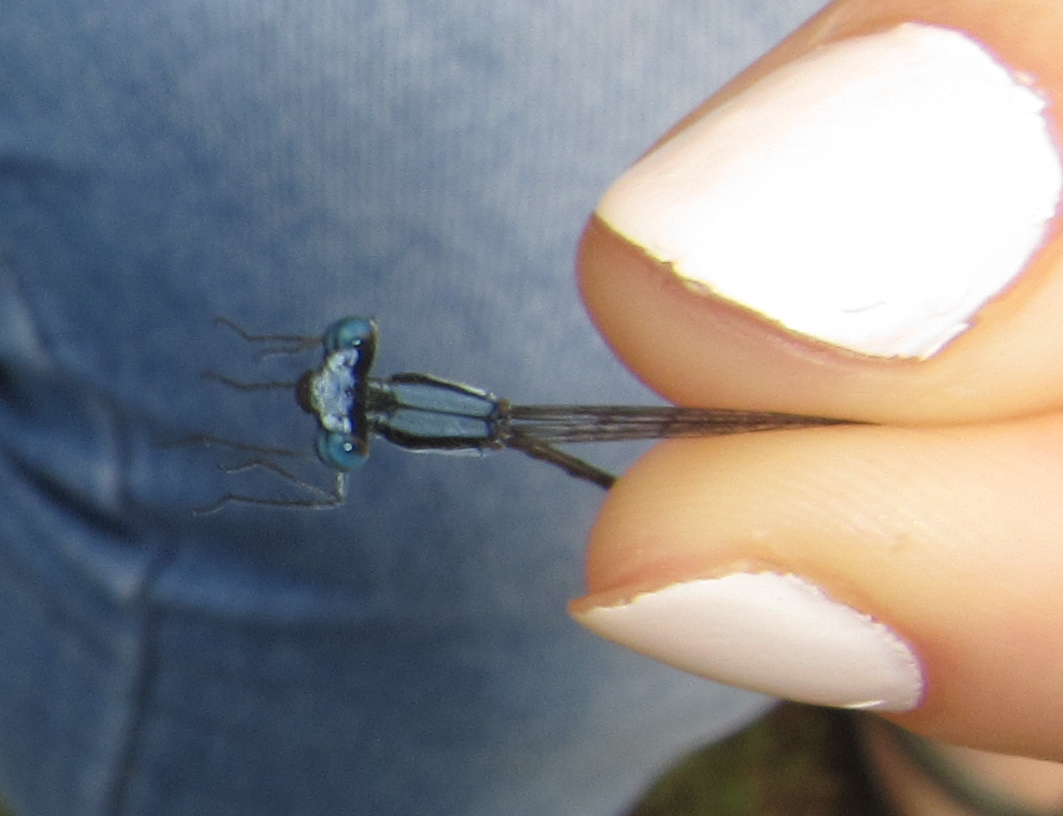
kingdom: Animalia
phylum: Arthropoda
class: Insecta
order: Odonata
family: Platycnemididae
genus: Elattoneura
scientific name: Elattoneura glauca
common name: Common threadtail
